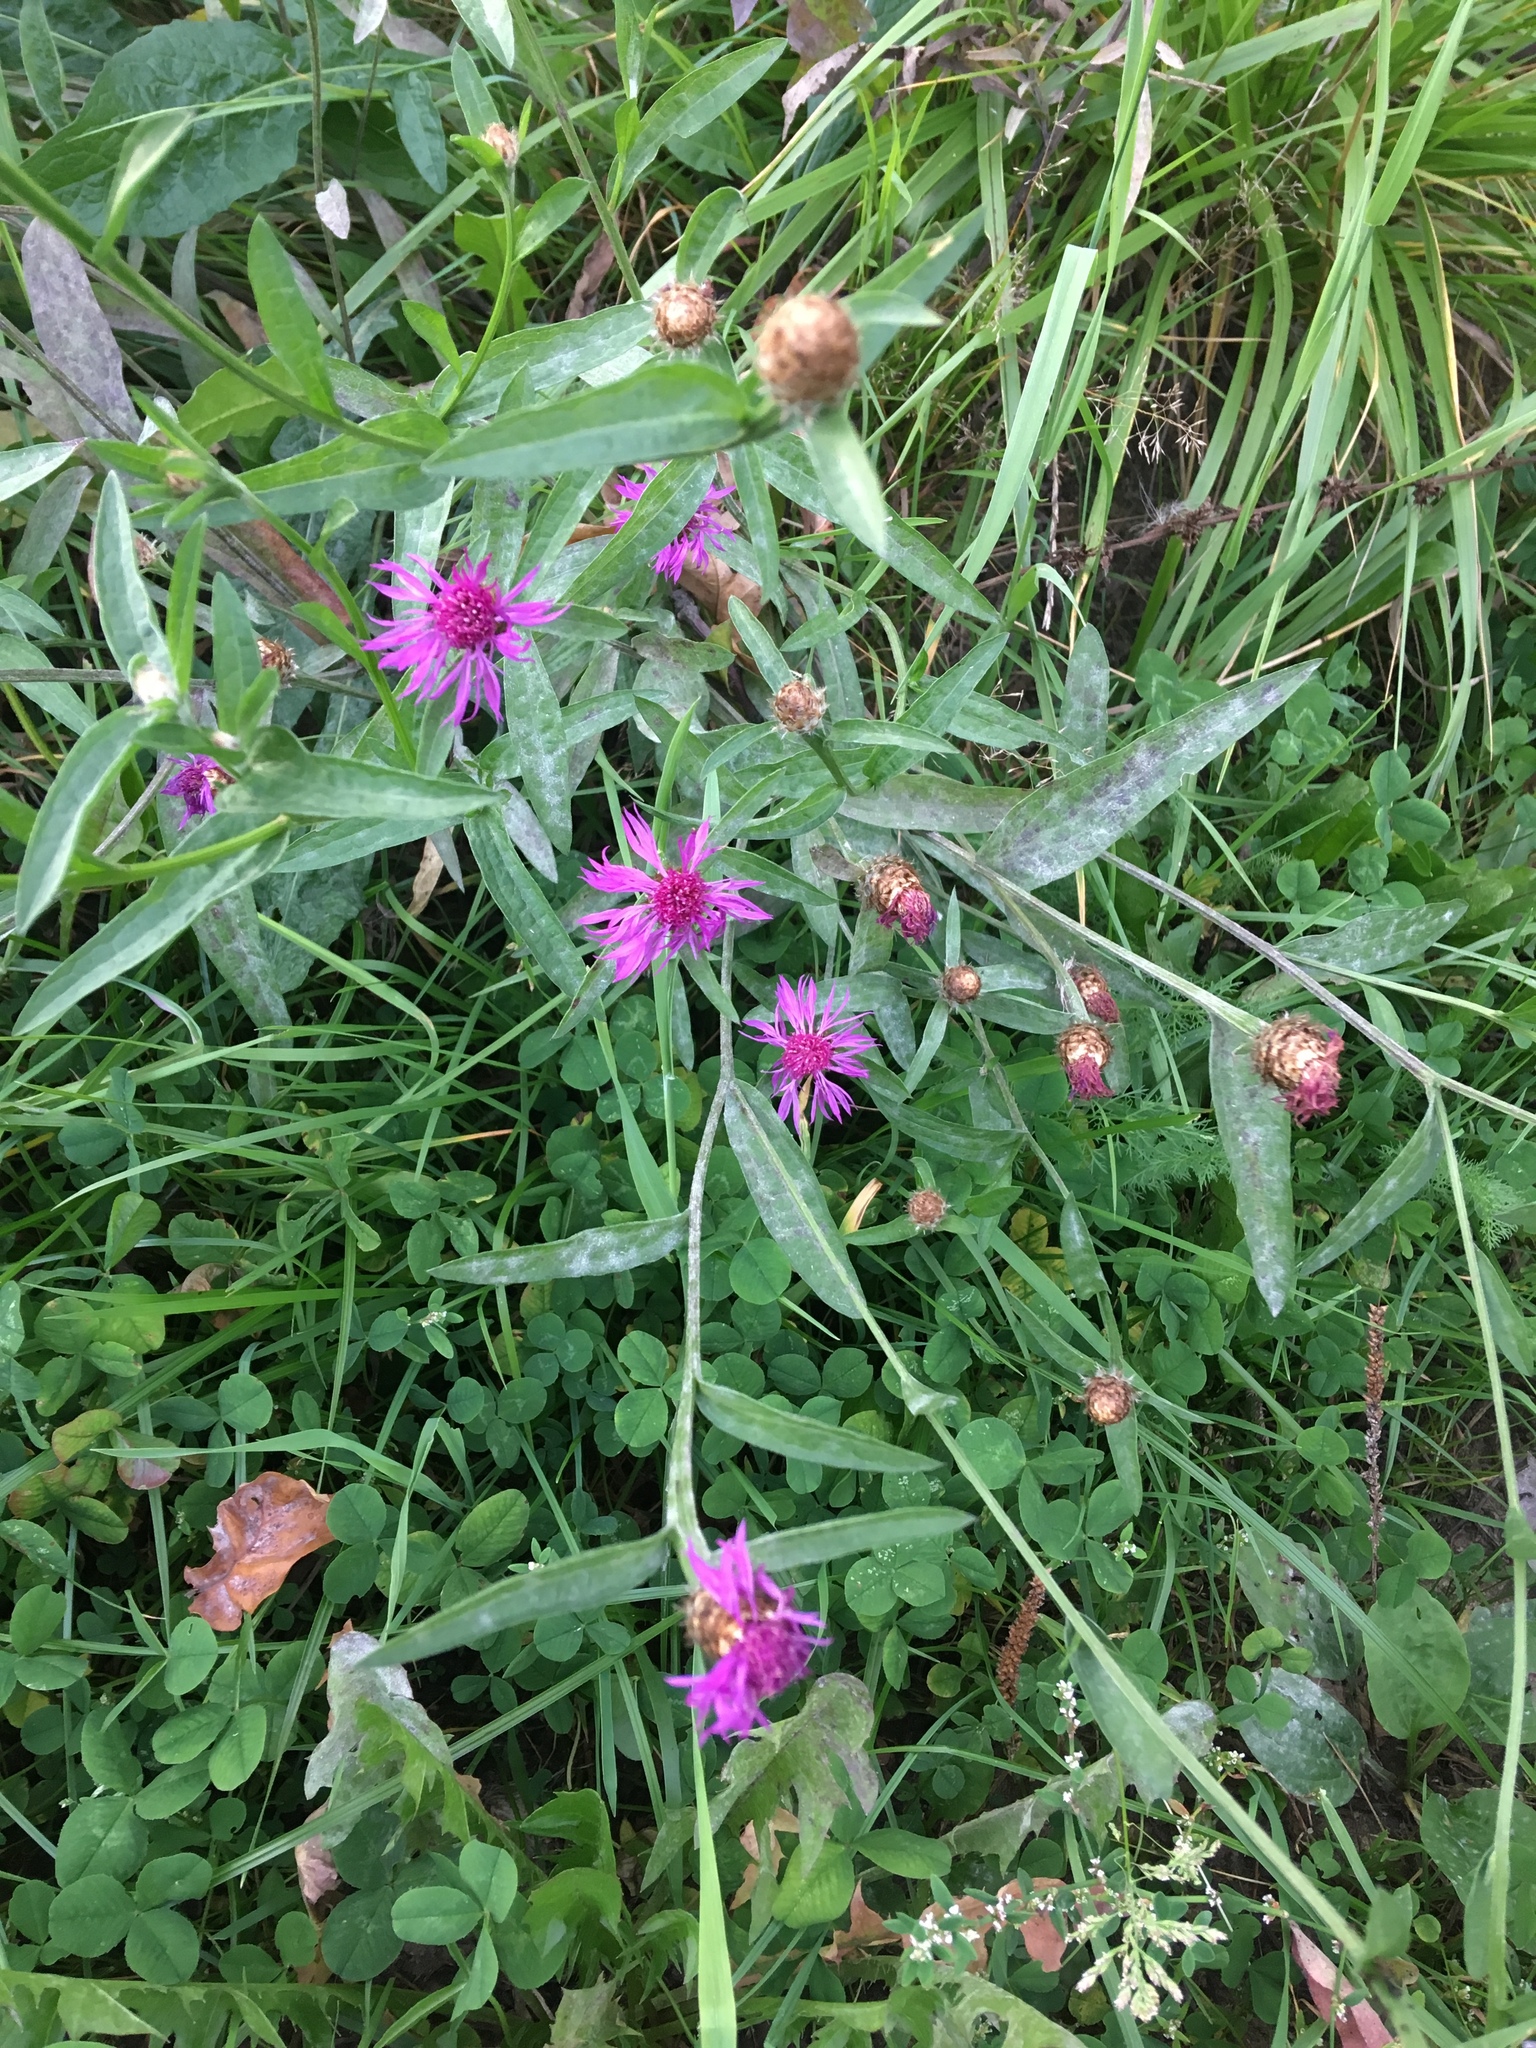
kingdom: Plantae
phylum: Tracheophyta
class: Magnoliopsida
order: Asterales
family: Asteraceae
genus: Centaurea
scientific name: Centaurea jacea
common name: Brown knapweed
